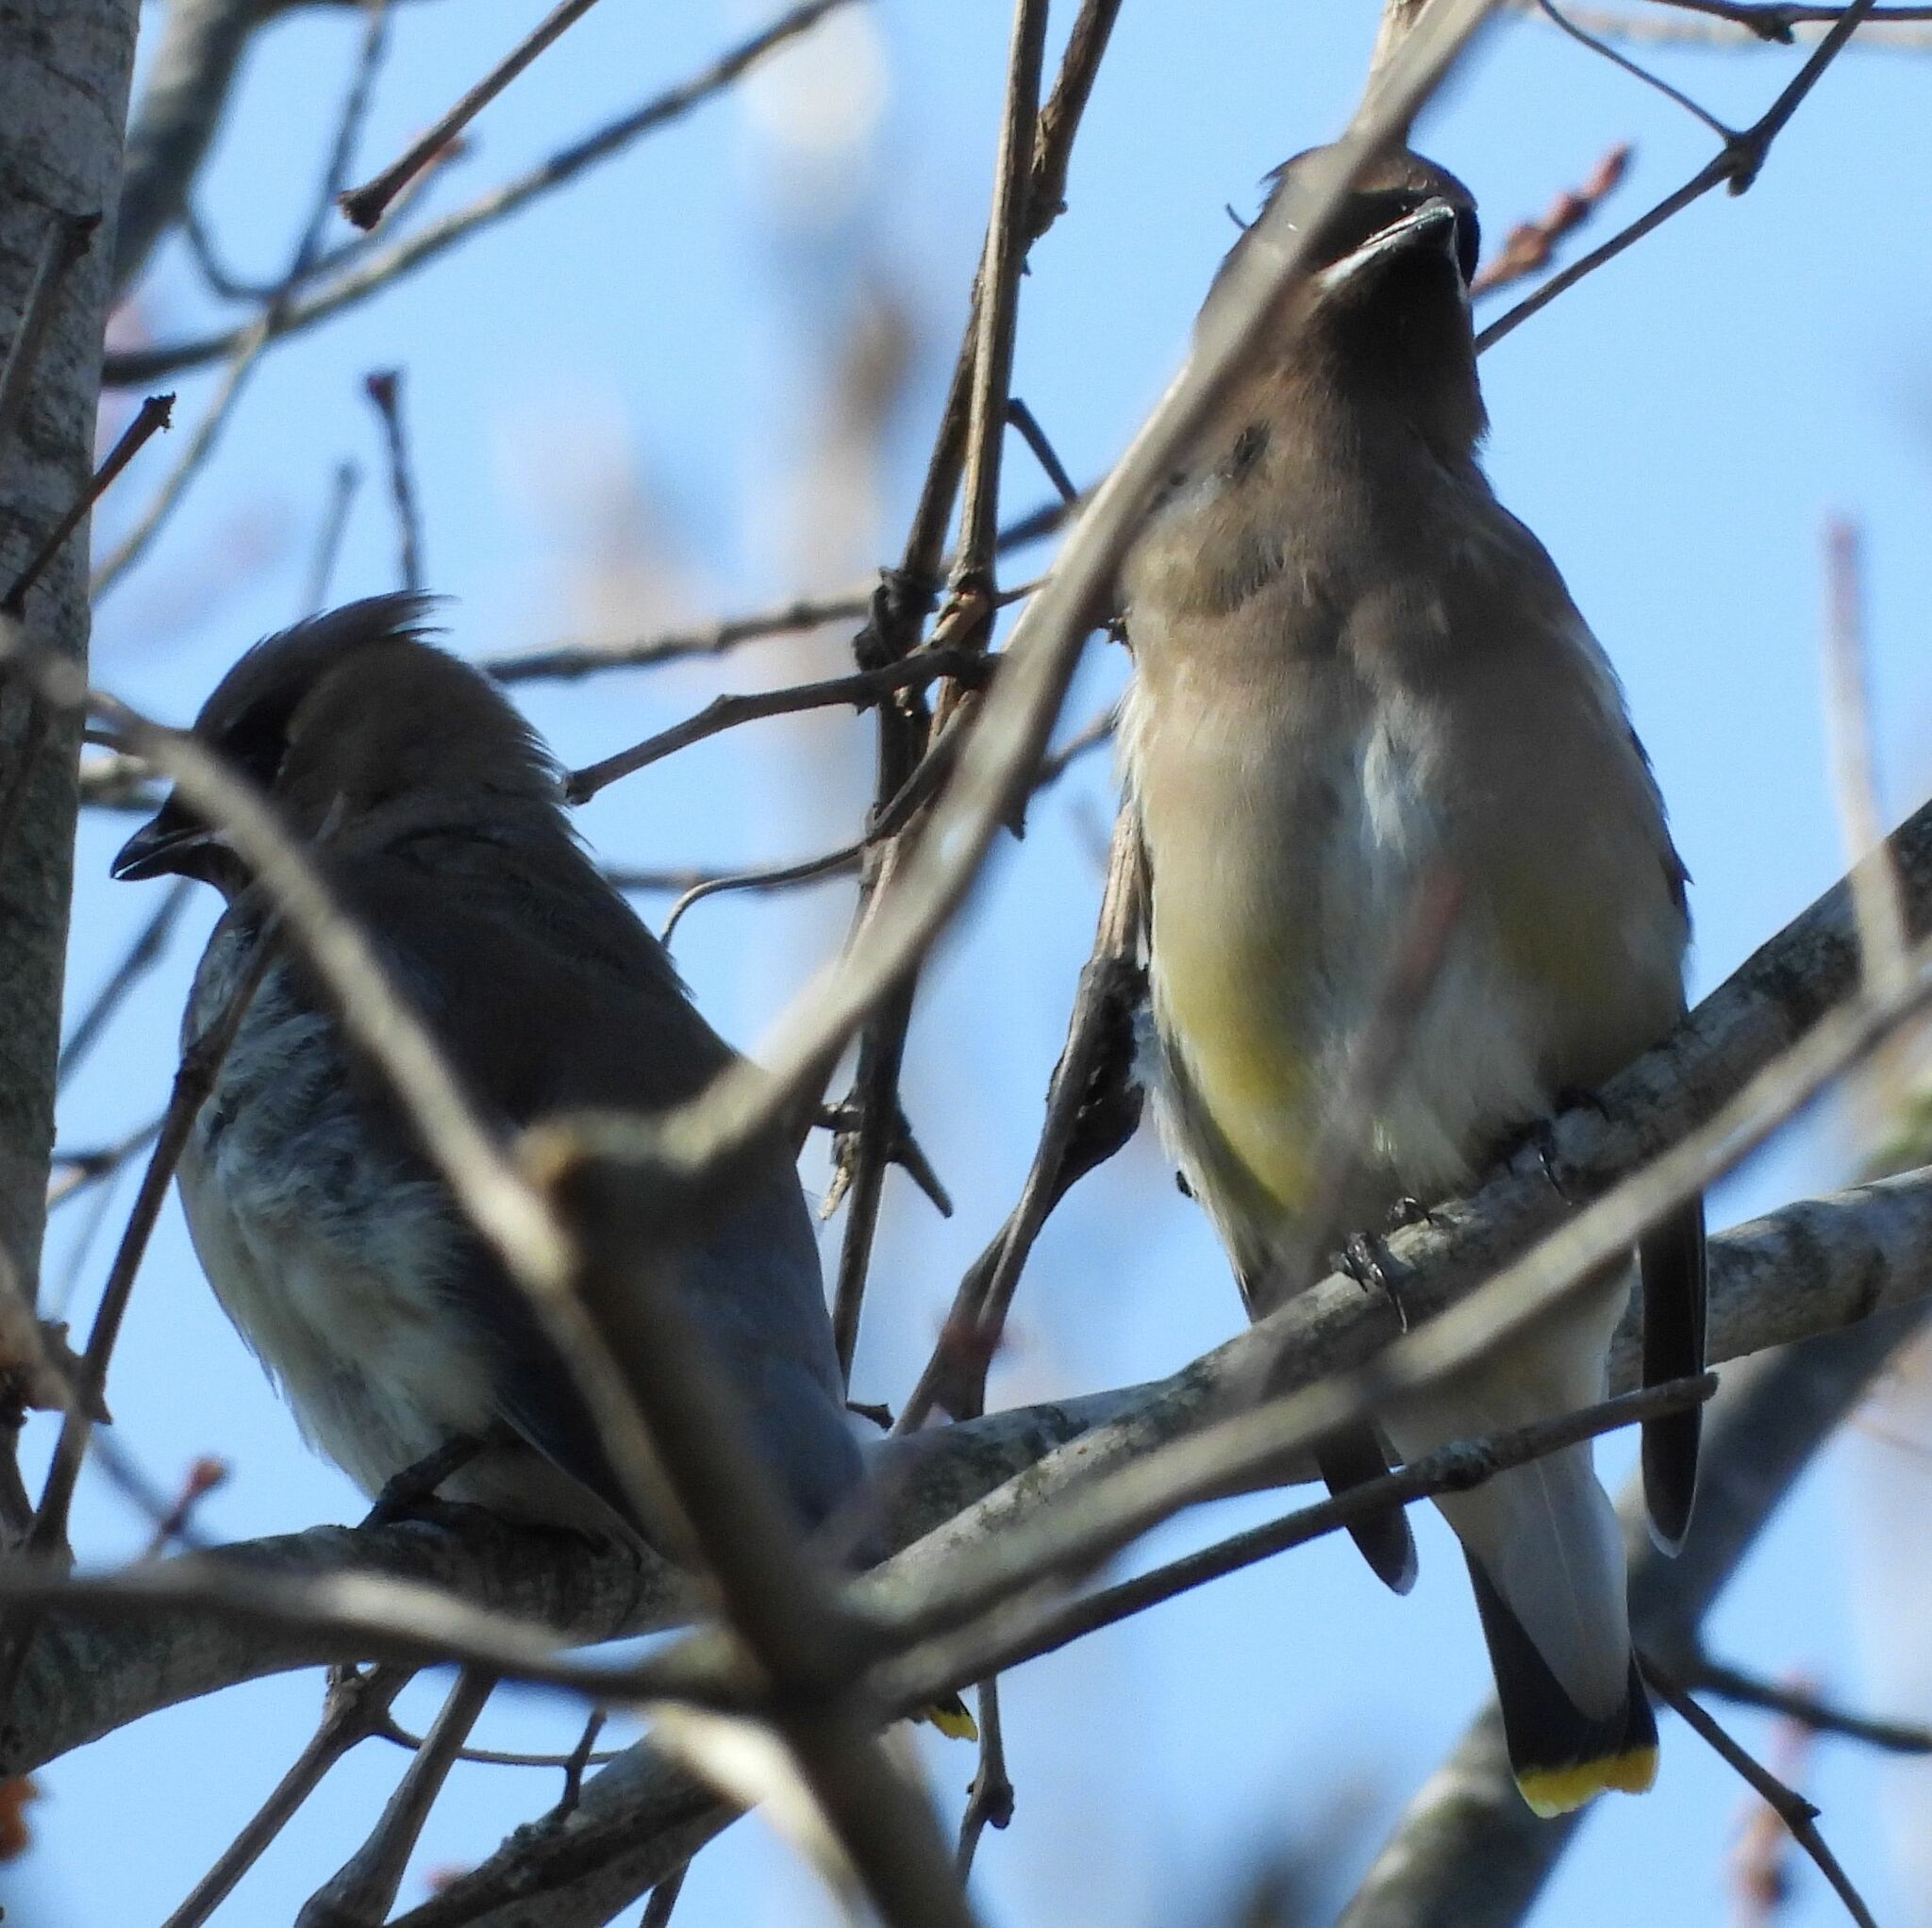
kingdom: Animalia
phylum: Chordata
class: Aves
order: Passeriformes
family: Bombycillidae
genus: Bombycilla
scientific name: Bombycilla cedrorum
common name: Cedar waxwing
